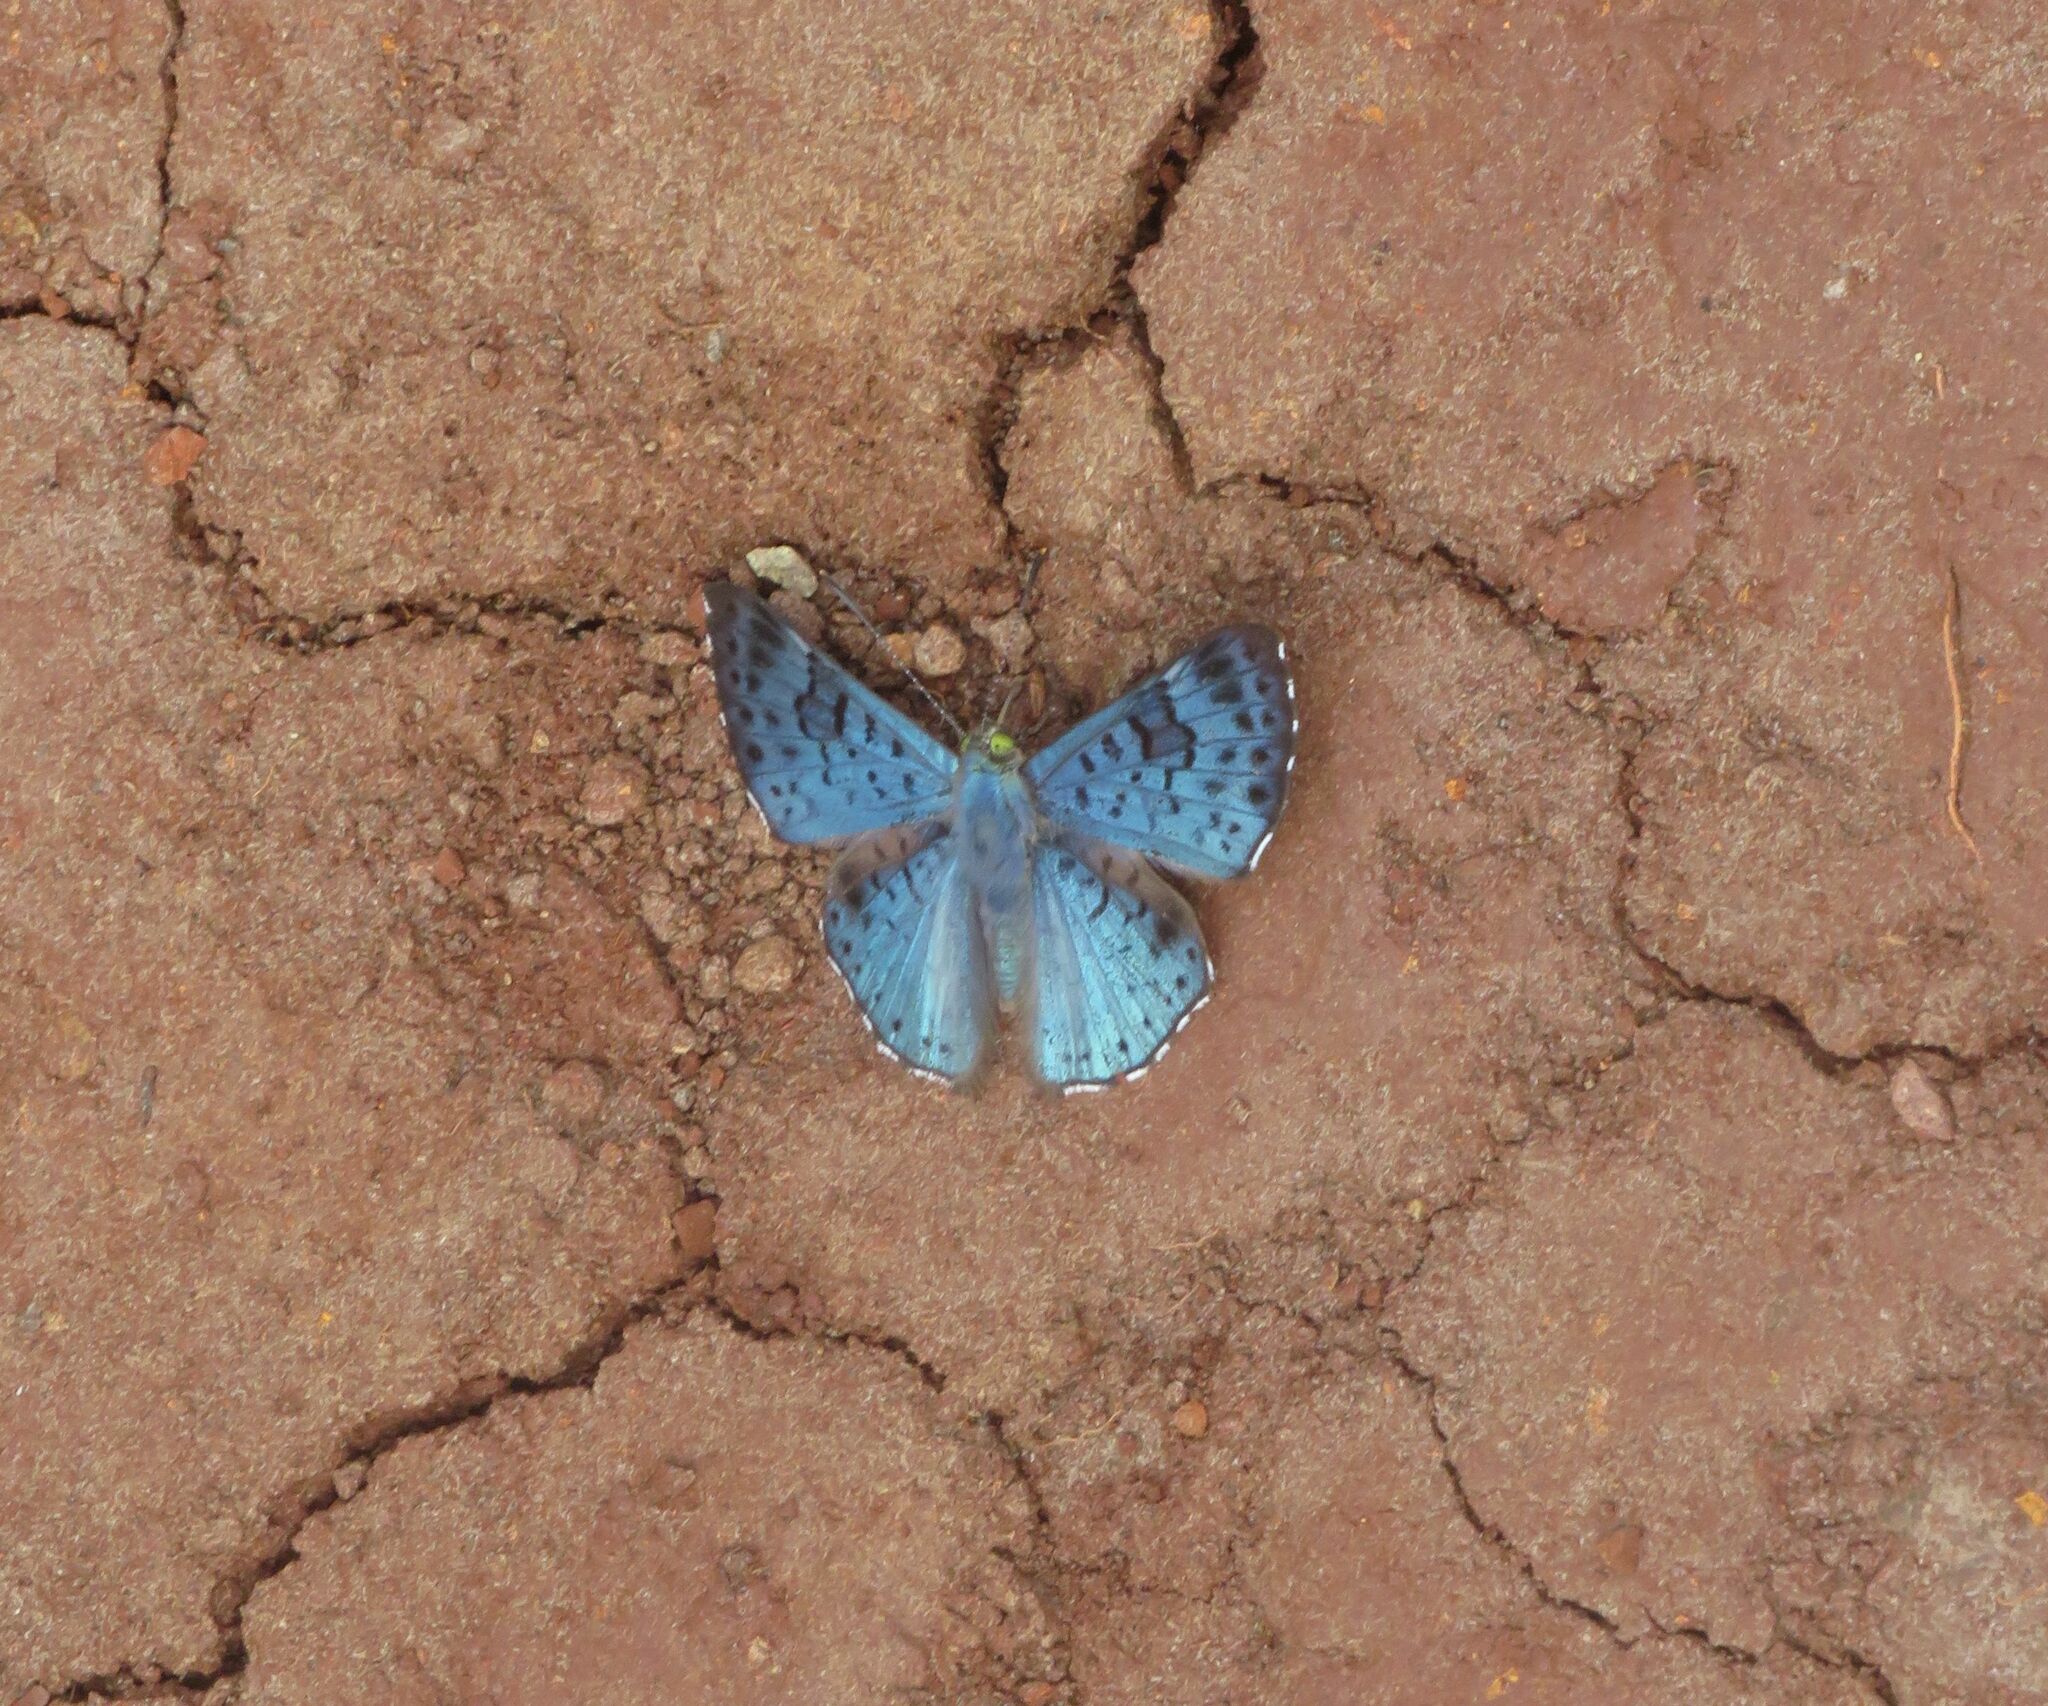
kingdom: Animalia
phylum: Arthropoda
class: Insecta
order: Lepidoptera
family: Riodinidae
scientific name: Riodinidae
